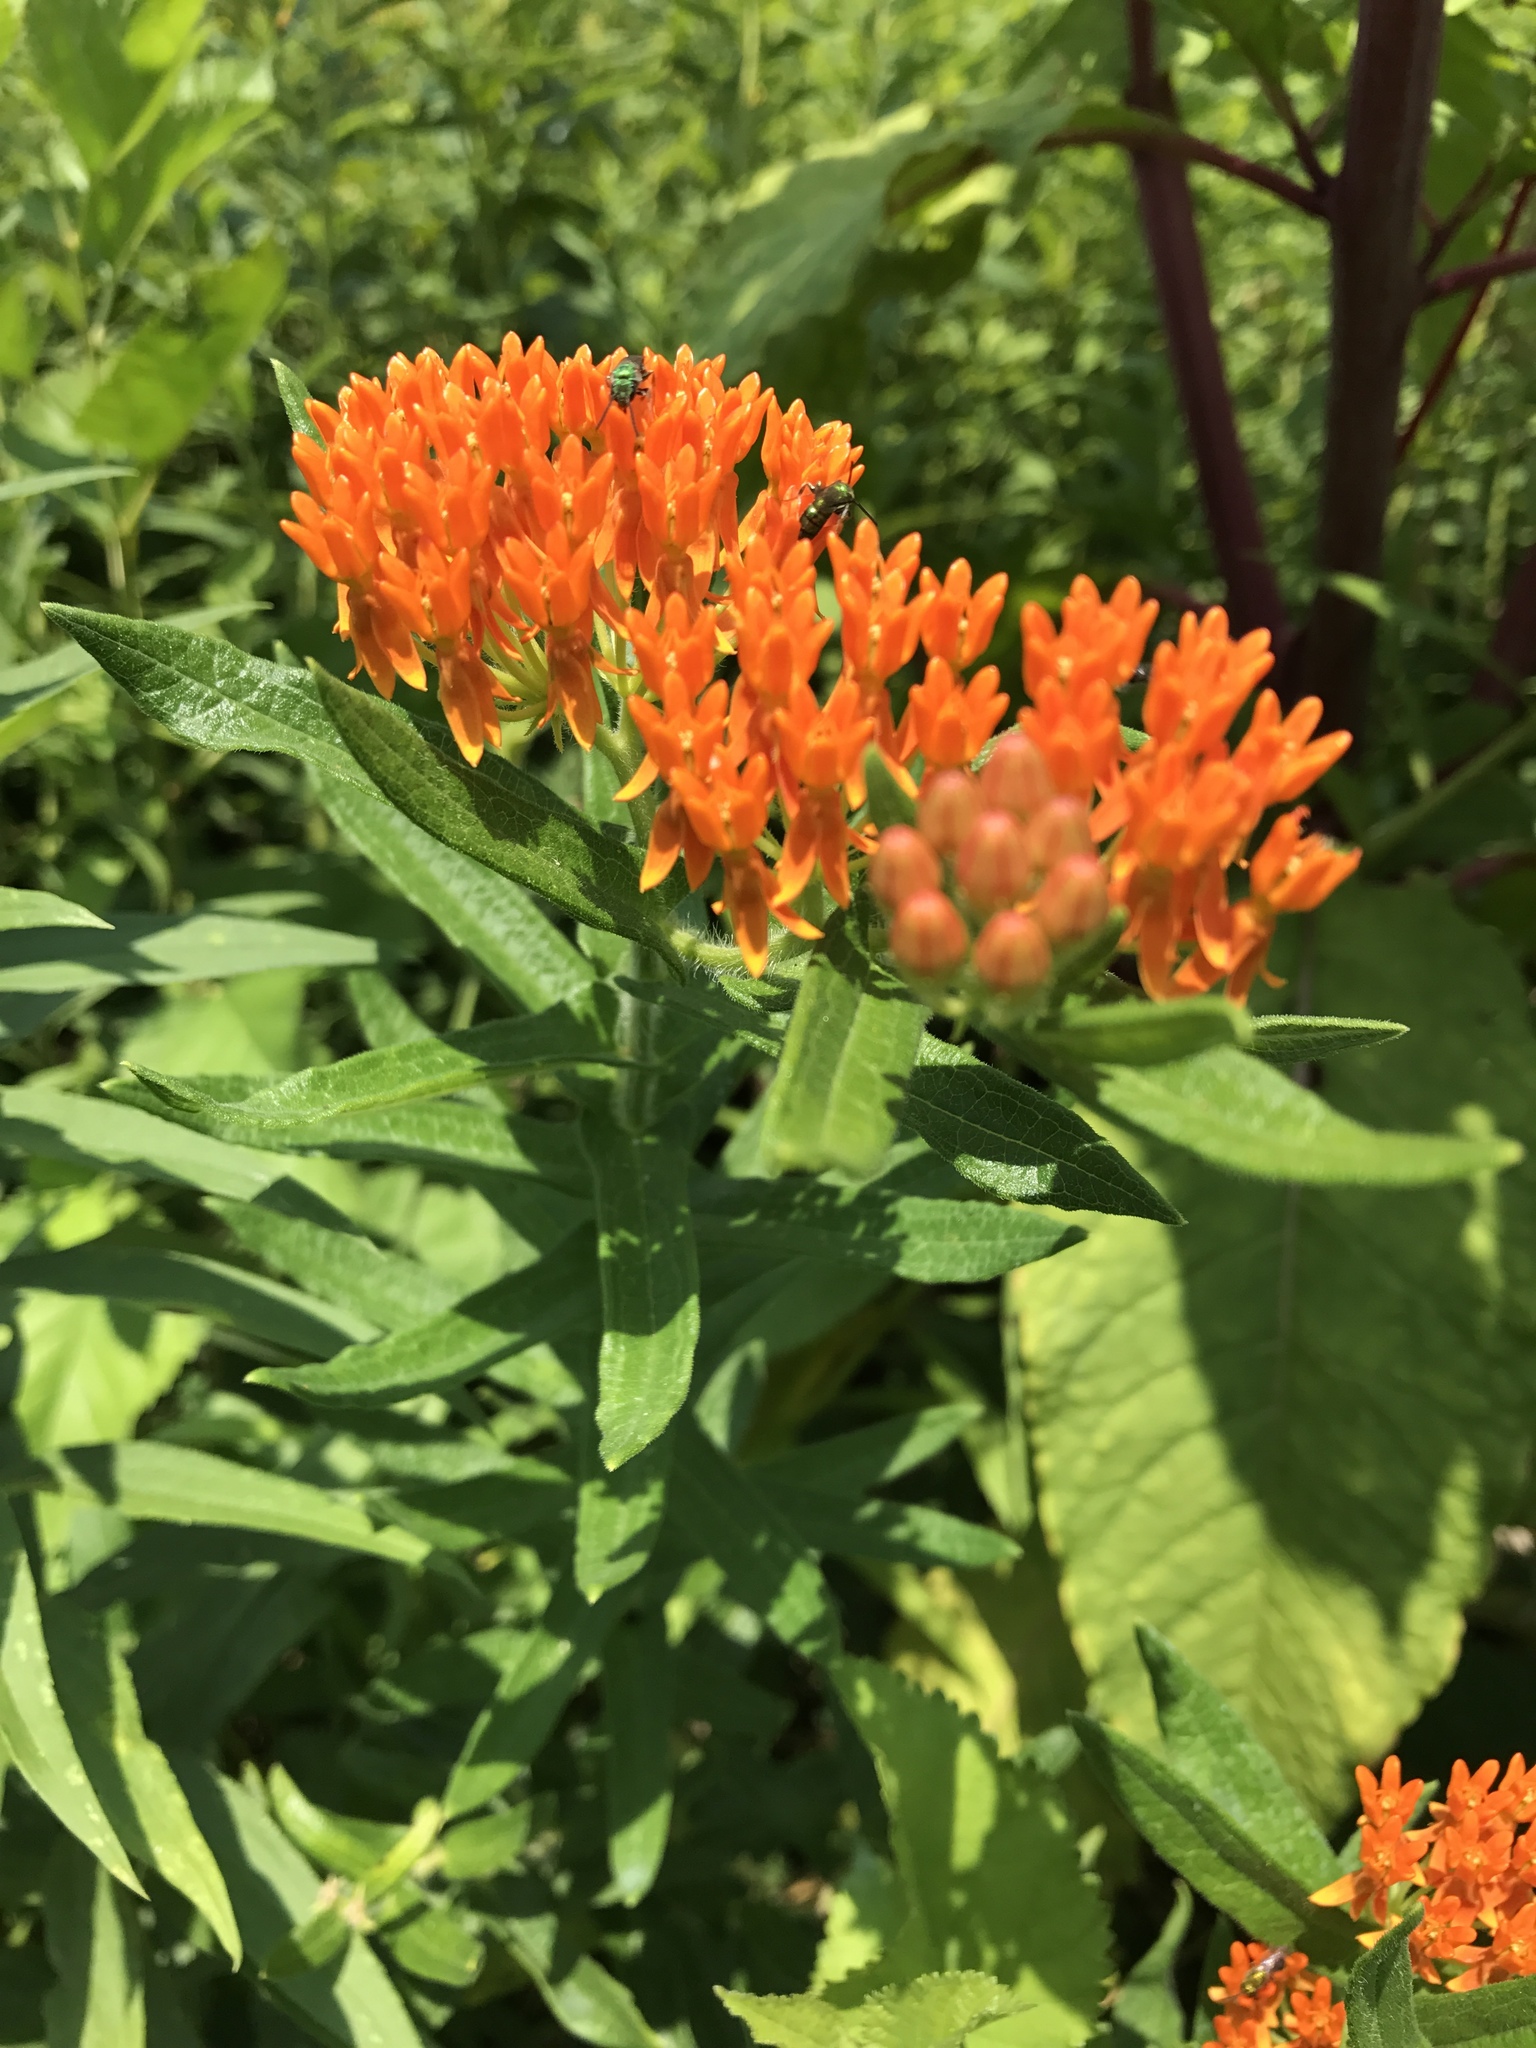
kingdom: Plantae
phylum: Tracheophyta
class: Magnoliopsida
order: Gentianales
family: Apocynaceae
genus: Asclepias
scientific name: Asclepias tuberosa
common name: Butterfly milkweed
